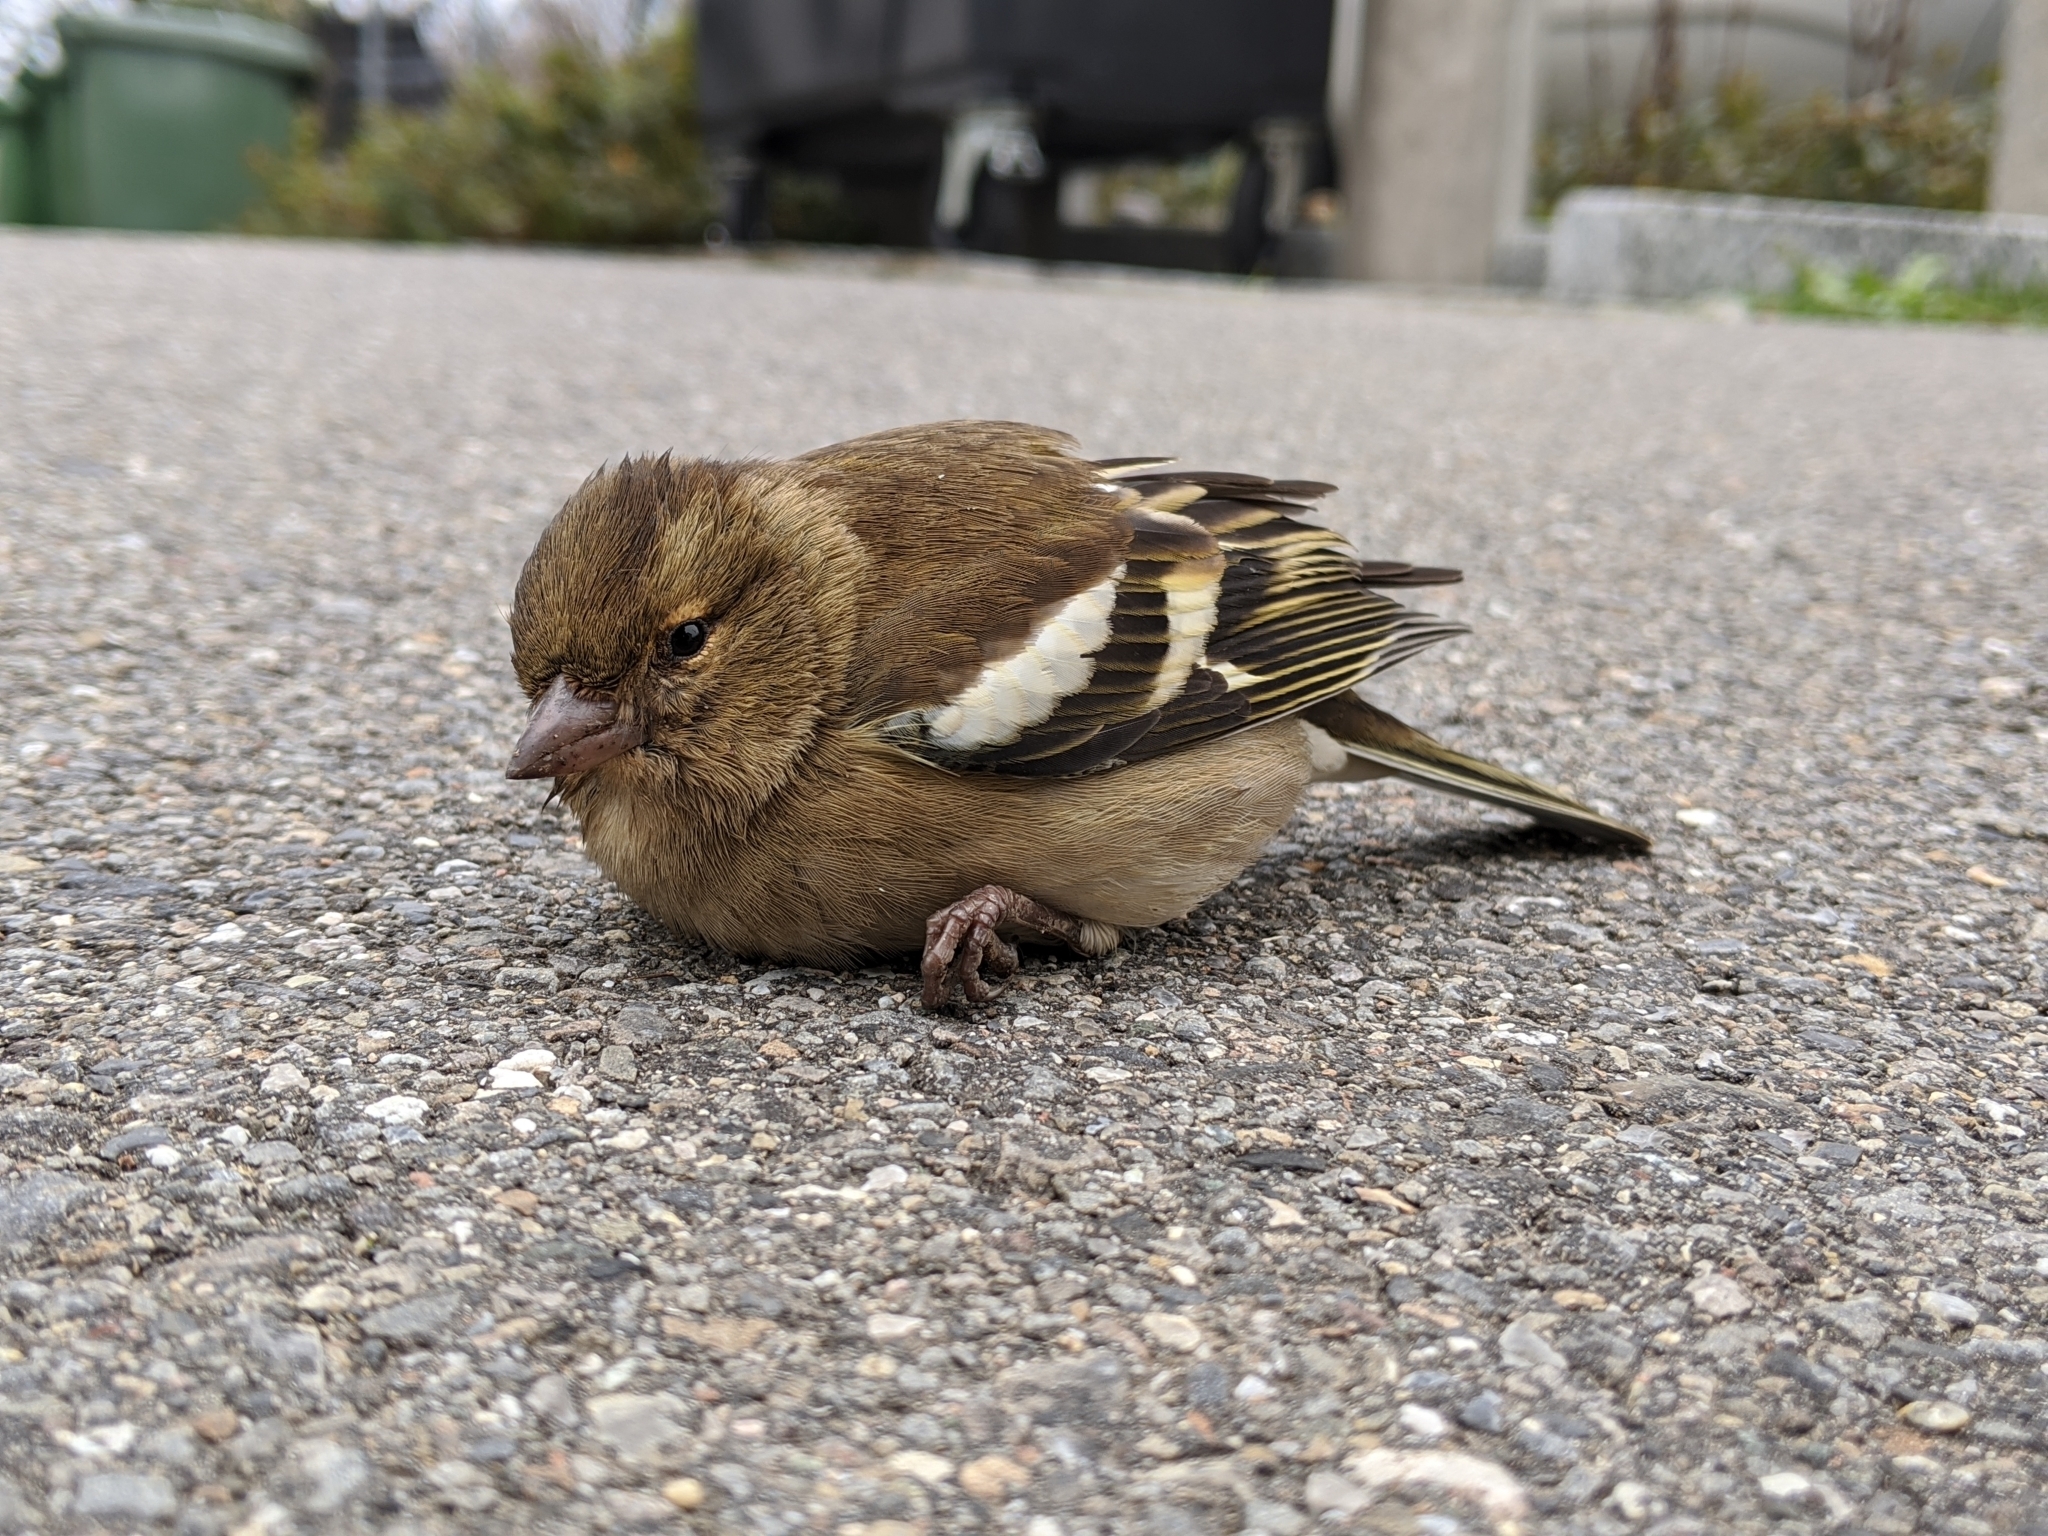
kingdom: Animalia
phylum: Chordata
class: Aves
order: Passeriformes
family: Fringillidae
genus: Fringilla
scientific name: Fringilla coelebs
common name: Common chaffinch
